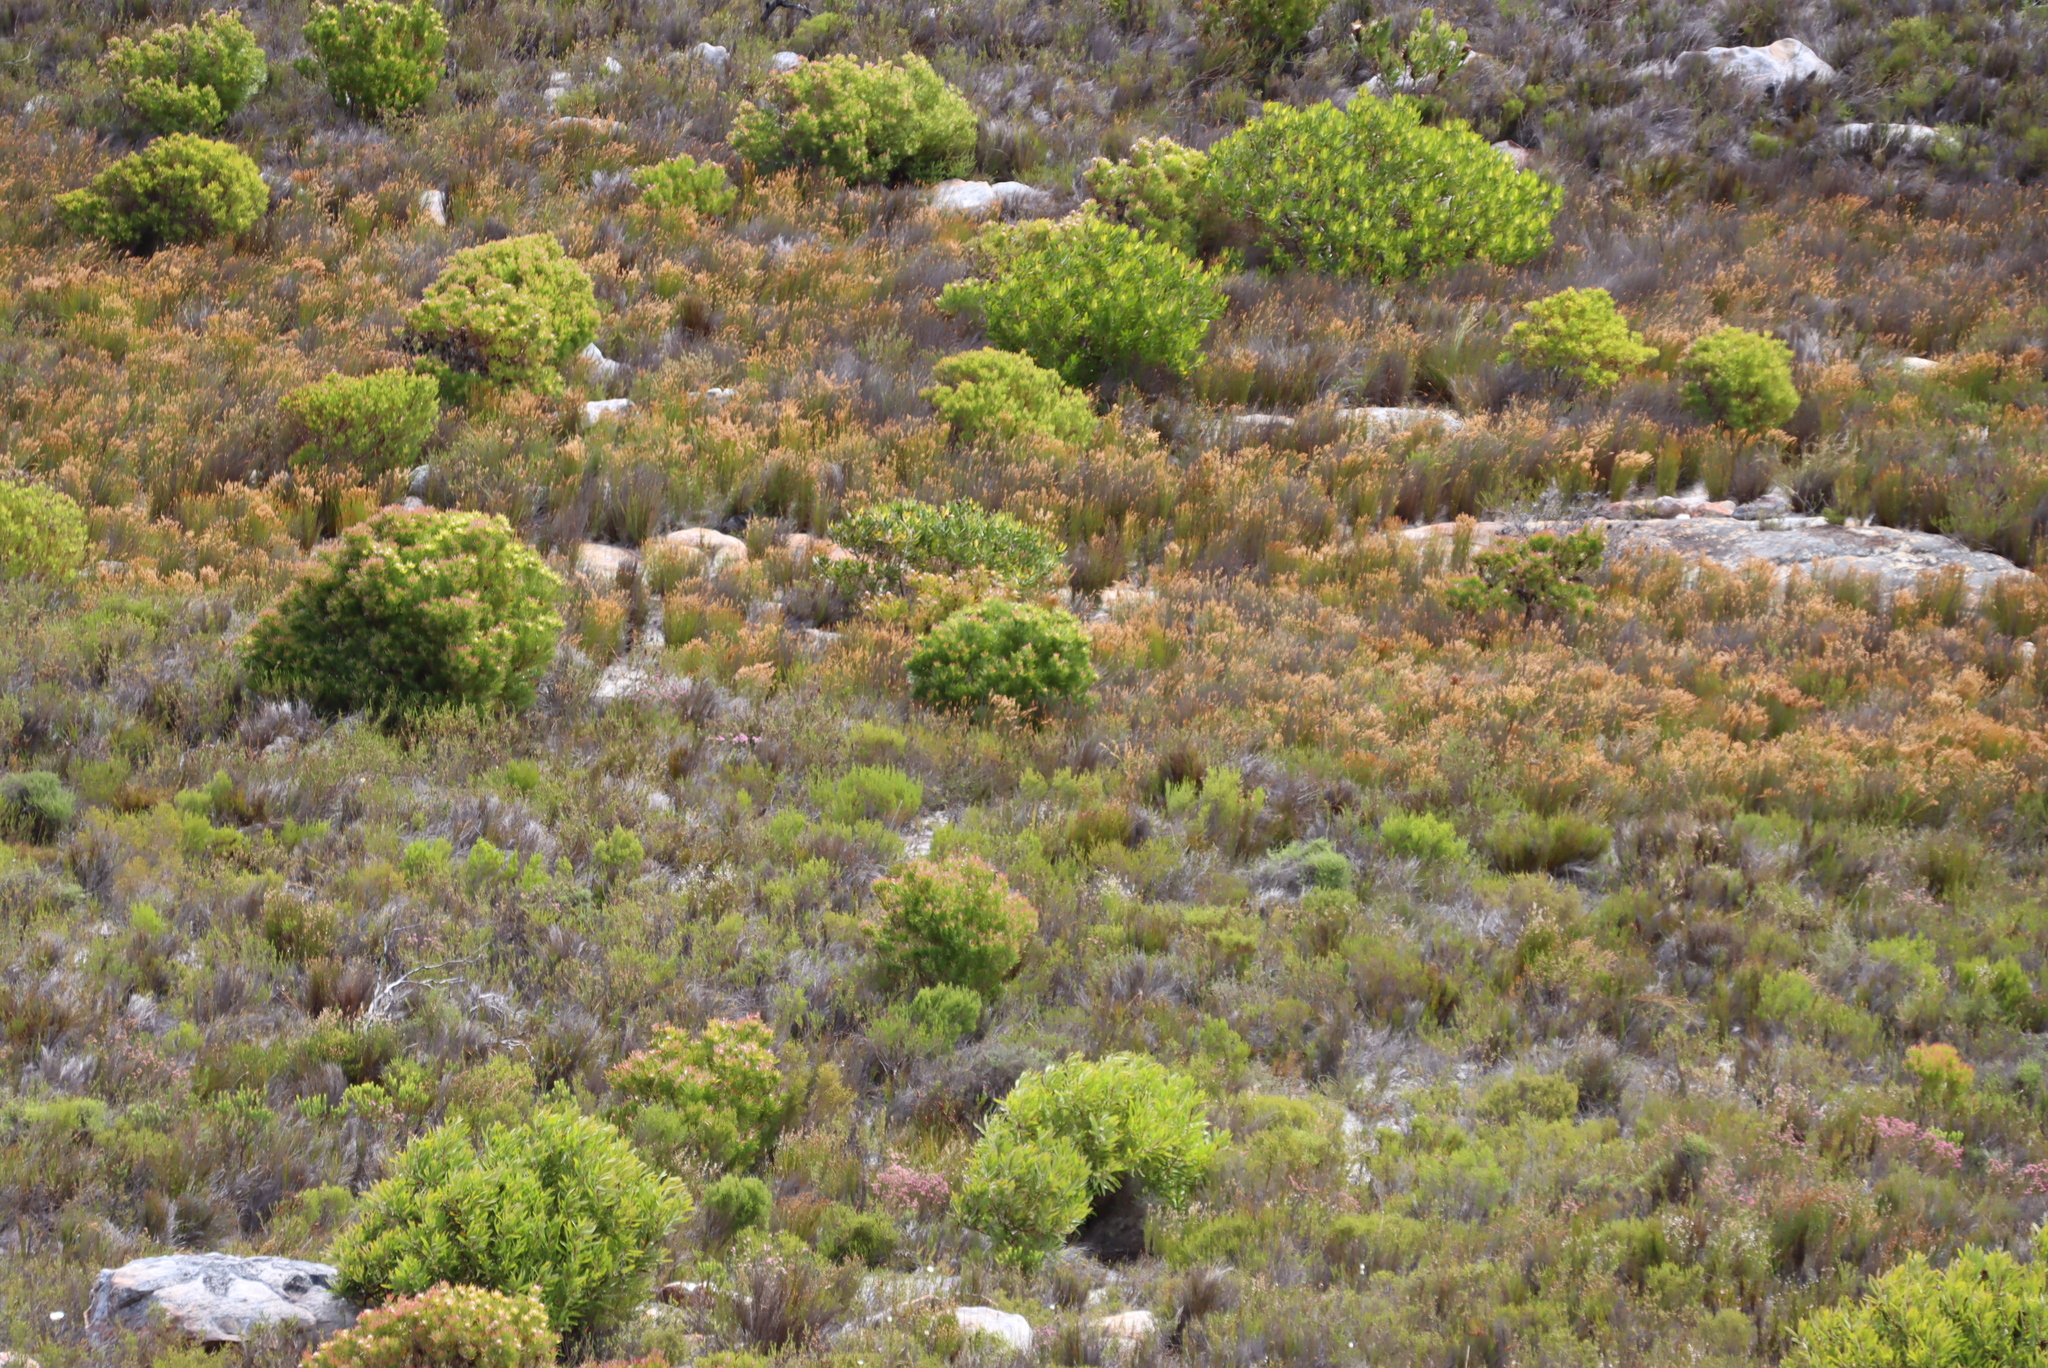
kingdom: Plantae
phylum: Tracheophyta
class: Magnoliopsida
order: Proteales
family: Proteaceae
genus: Leucadendron
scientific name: Leucadendron laureolum
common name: Golden sunshinebush
